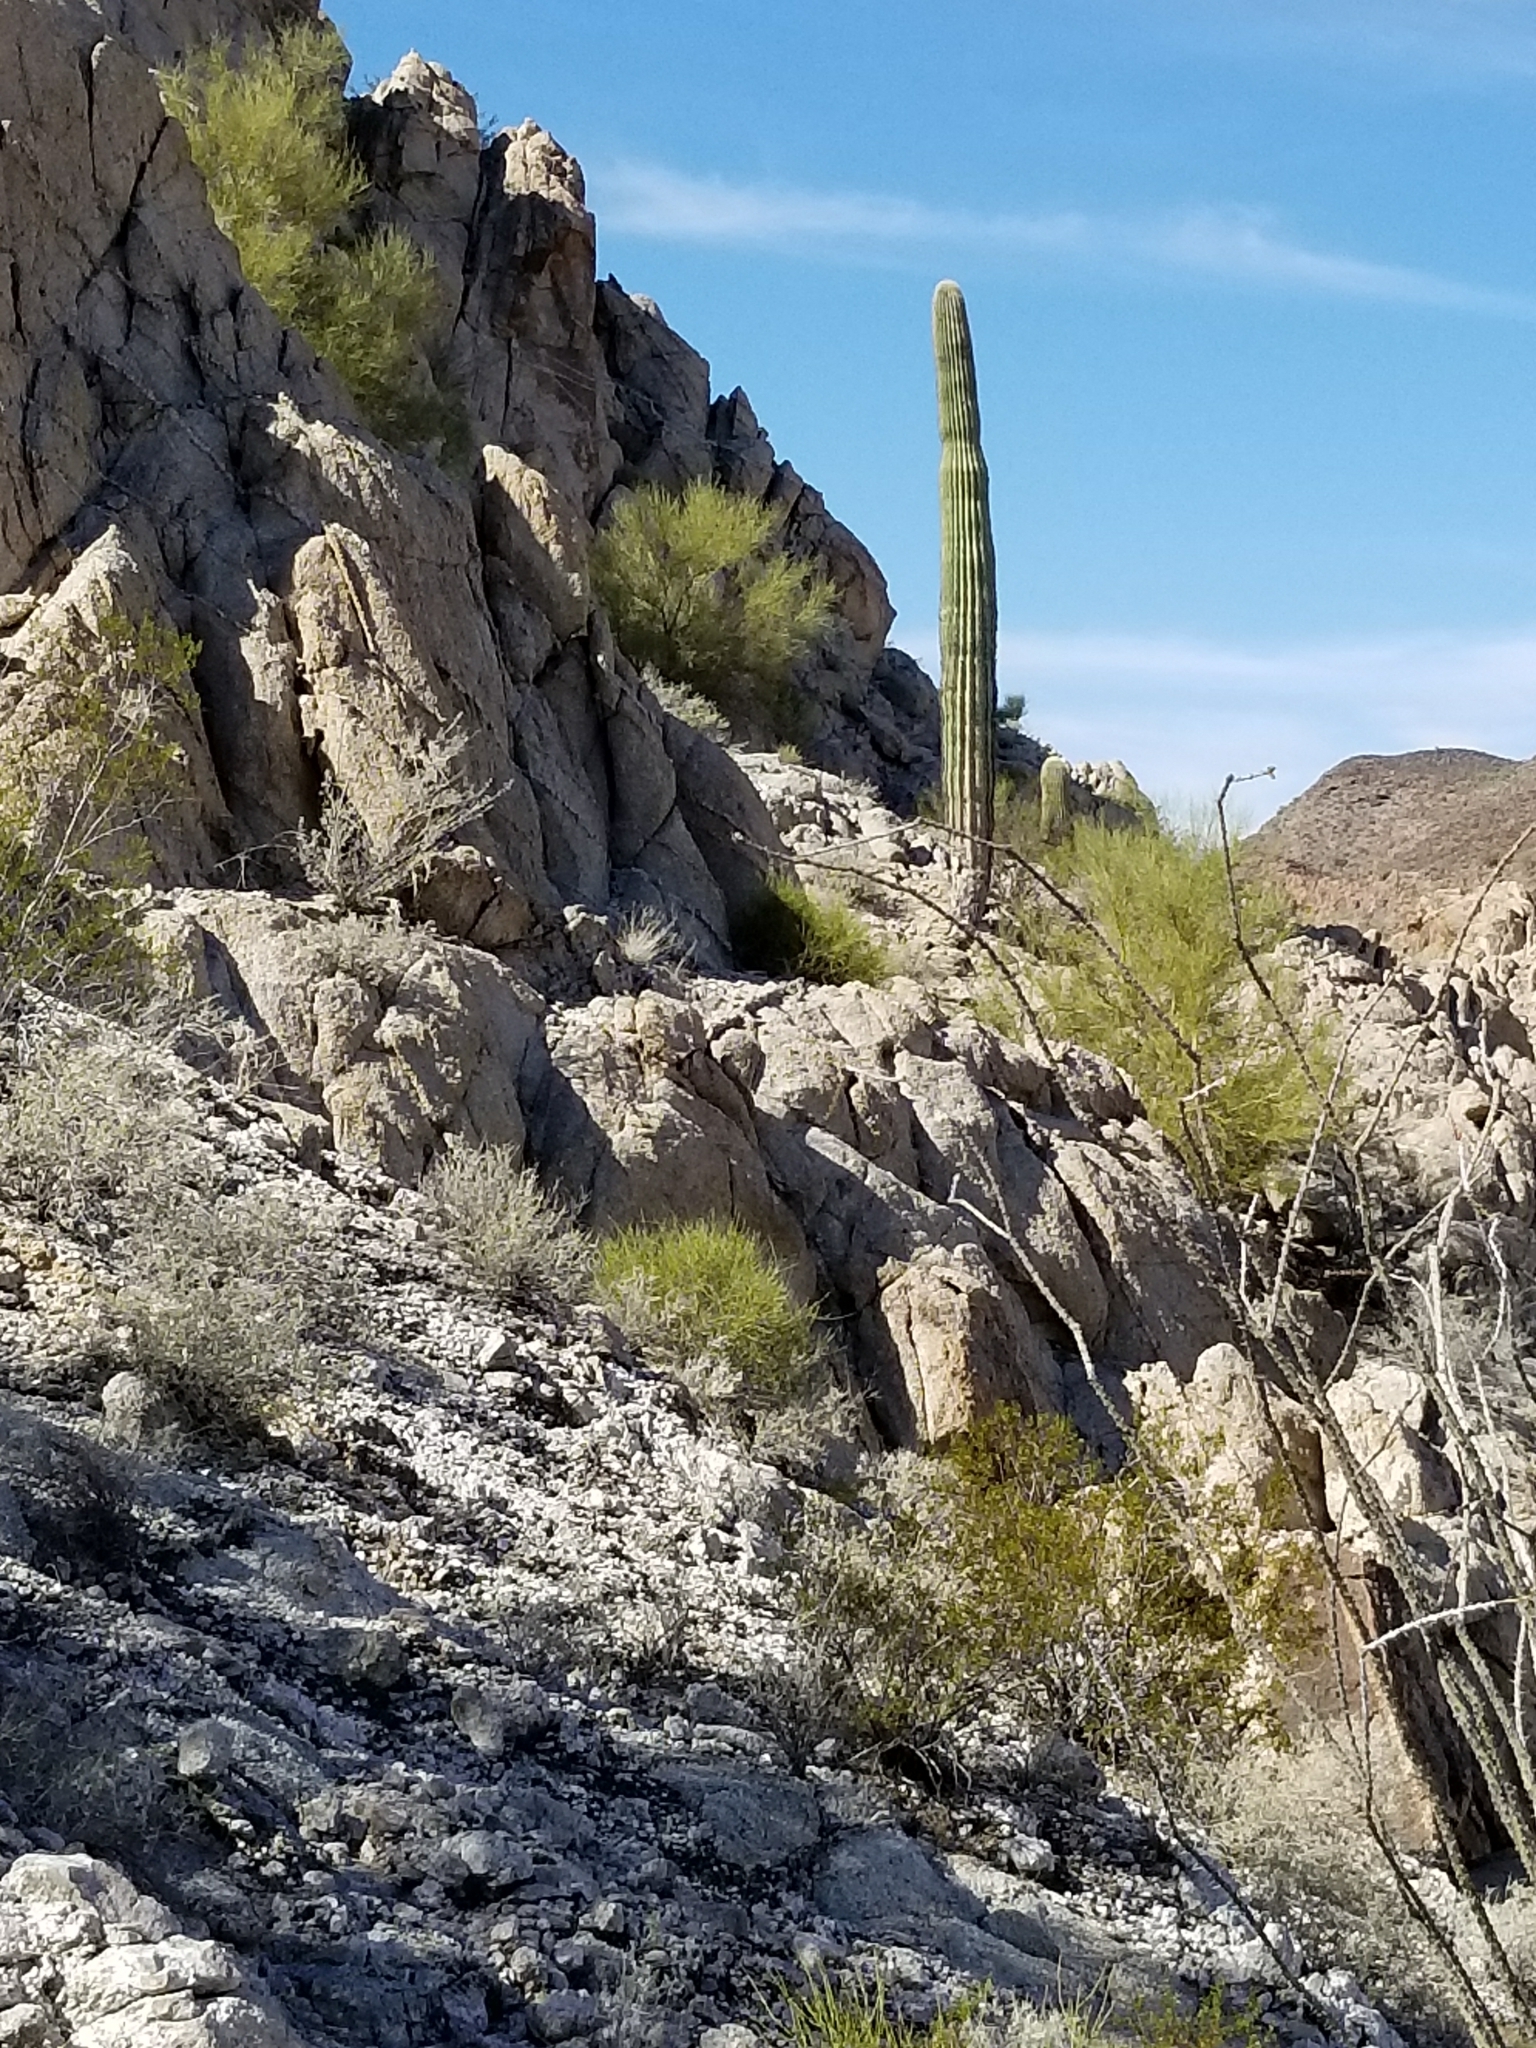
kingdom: Plantae
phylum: Tracheophyta
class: Magnoliopsida
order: Caryophyllales
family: Cactaceae
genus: Carnegiea
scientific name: Carnegiea gigantea
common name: Saguaro
